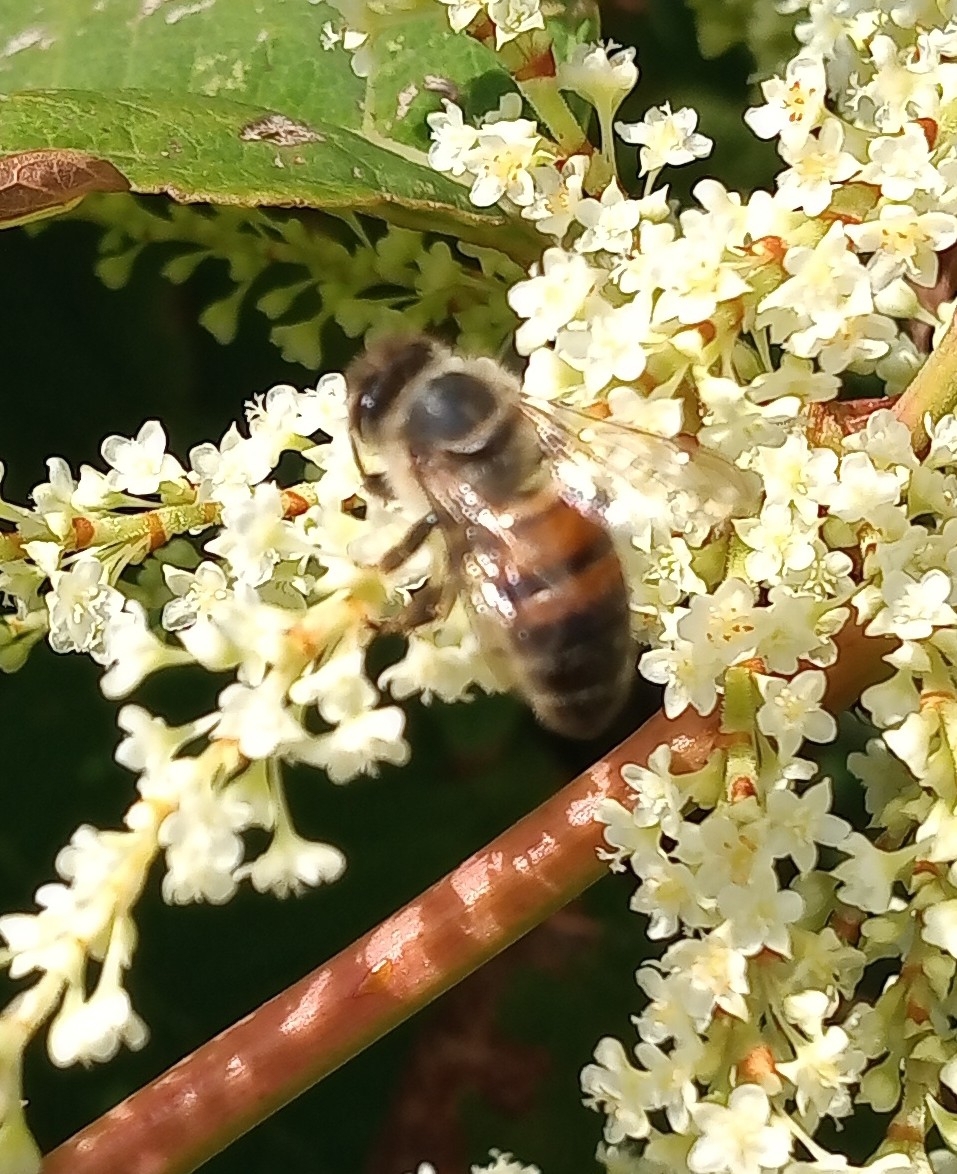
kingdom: Animalia
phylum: Arthropoda
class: Insecta
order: Hymenoptera
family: Apidae
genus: Apis
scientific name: Apis mellifera
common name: Honey bee
